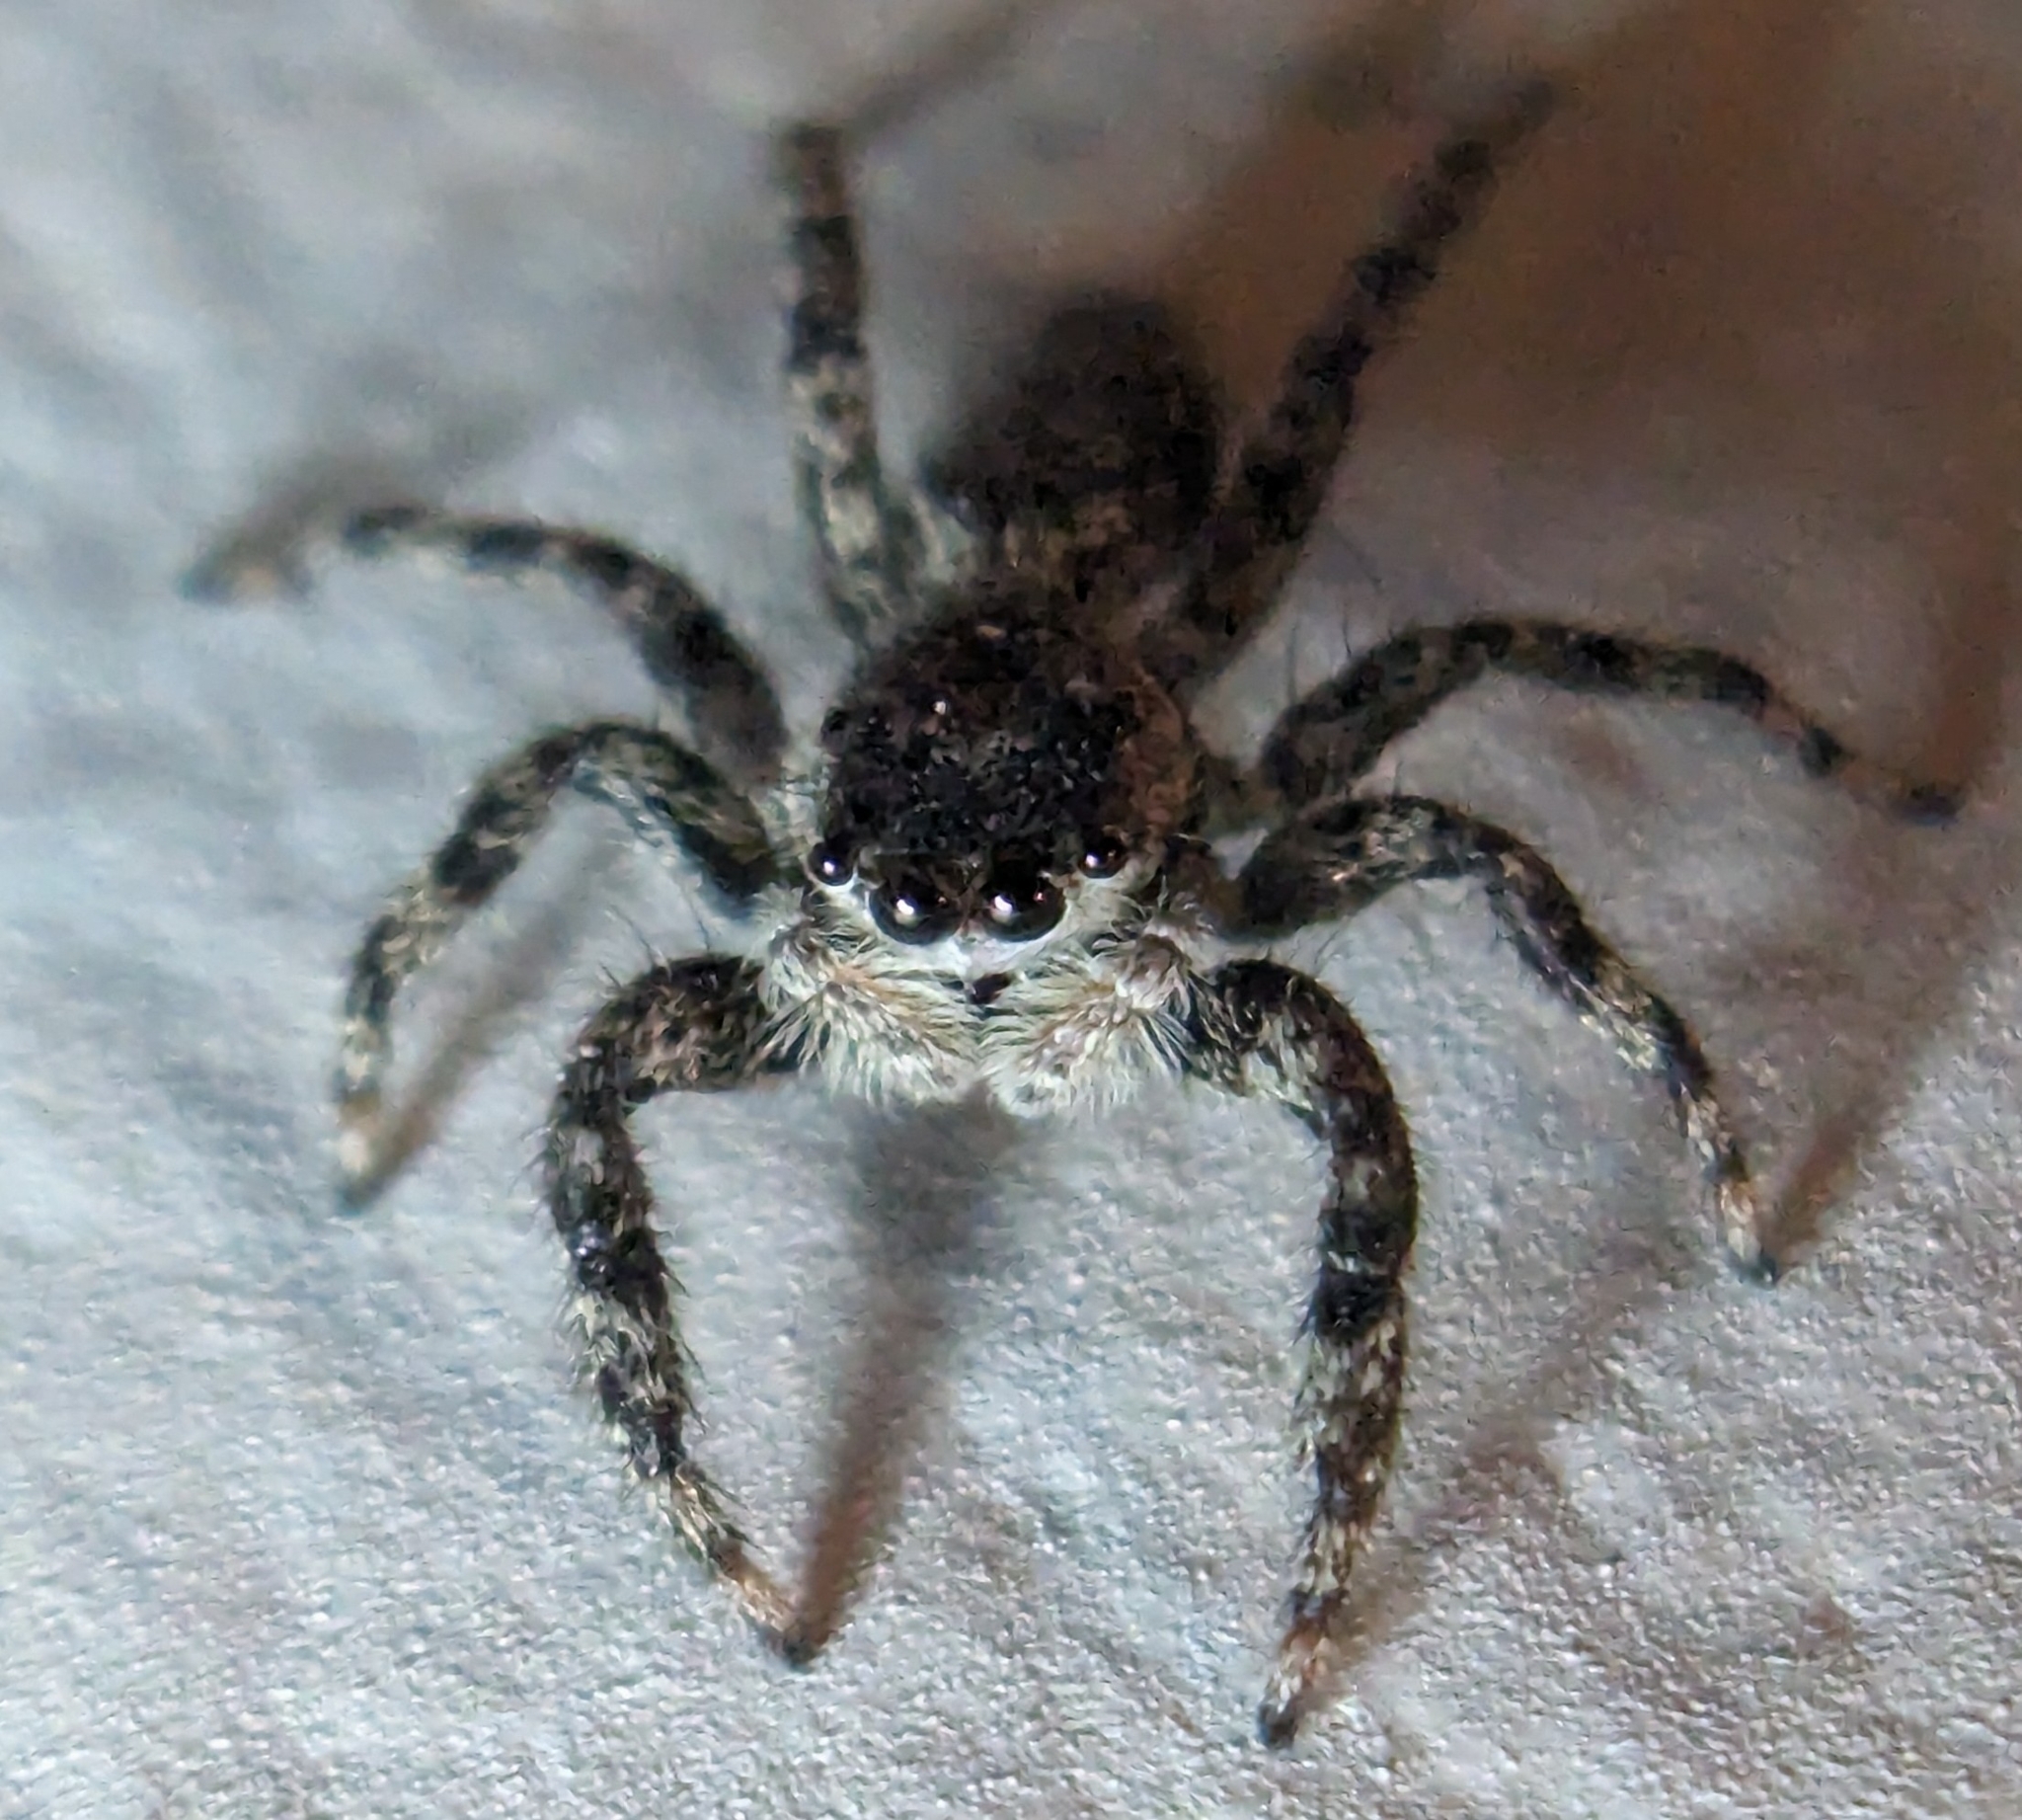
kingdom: Animalia
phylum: Arthropoda
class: Arachnida
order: Araneae
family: Salticidae
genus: Platycryptus
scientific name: Platycryptus undatus
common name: Tan jumping spider
